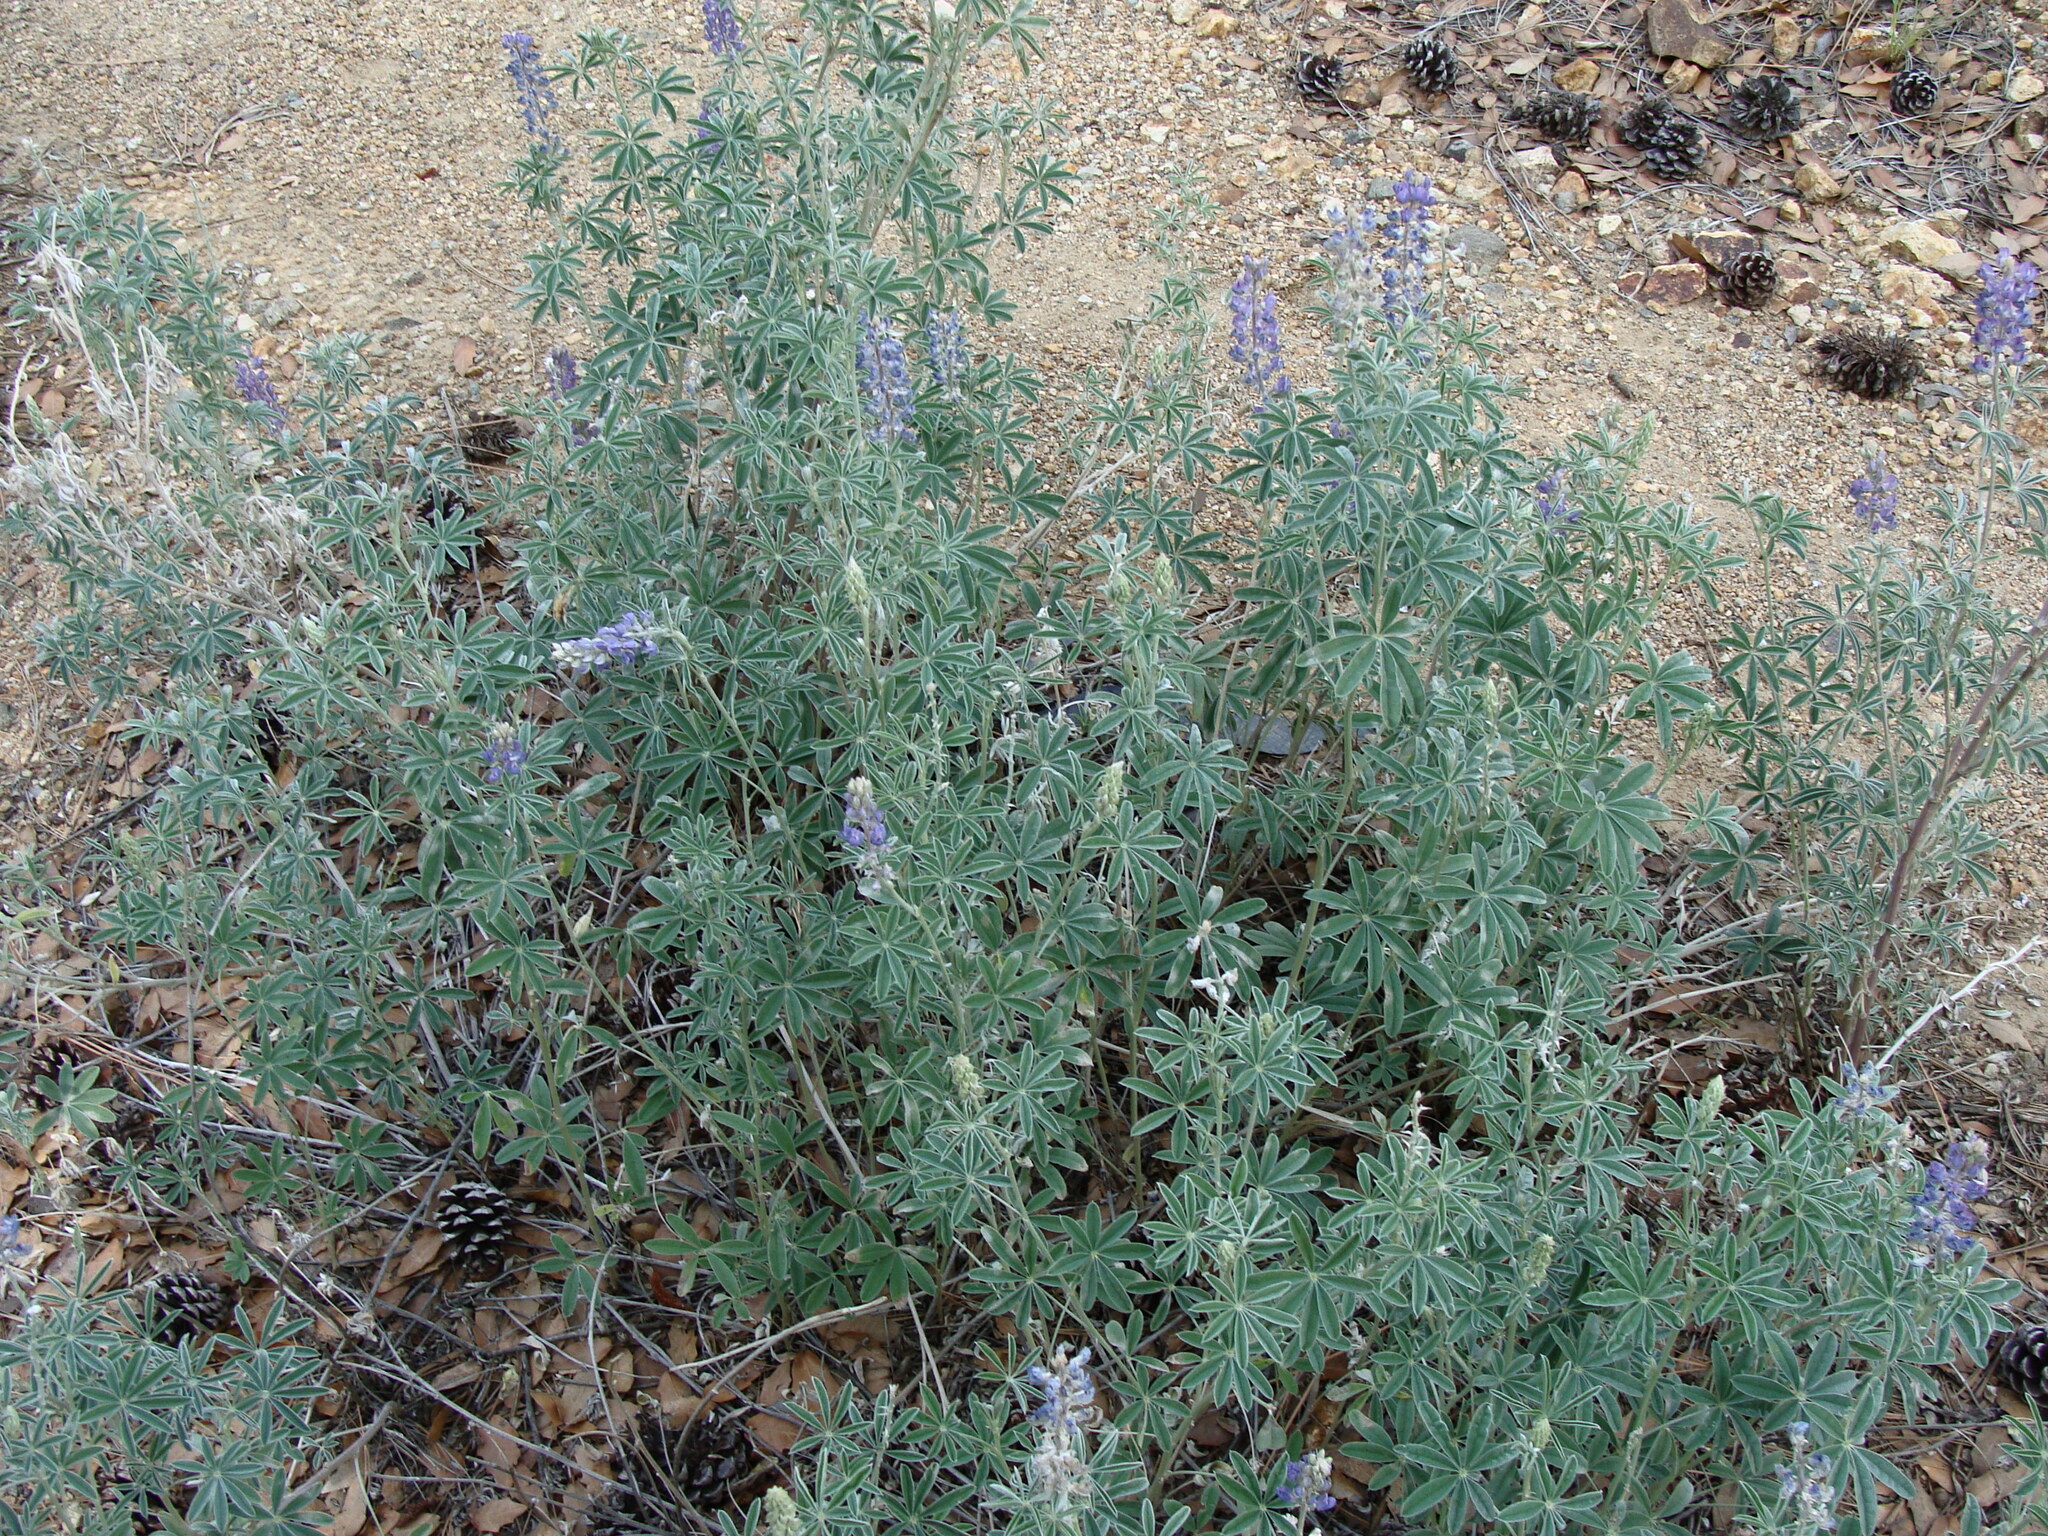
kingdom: Plantae
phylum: Tracheophyta
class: Magnoliopsida
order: Fabales
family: Fabaceae
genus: Lupinus
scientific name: Lupinus arizonicus
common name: Arizona lupine
